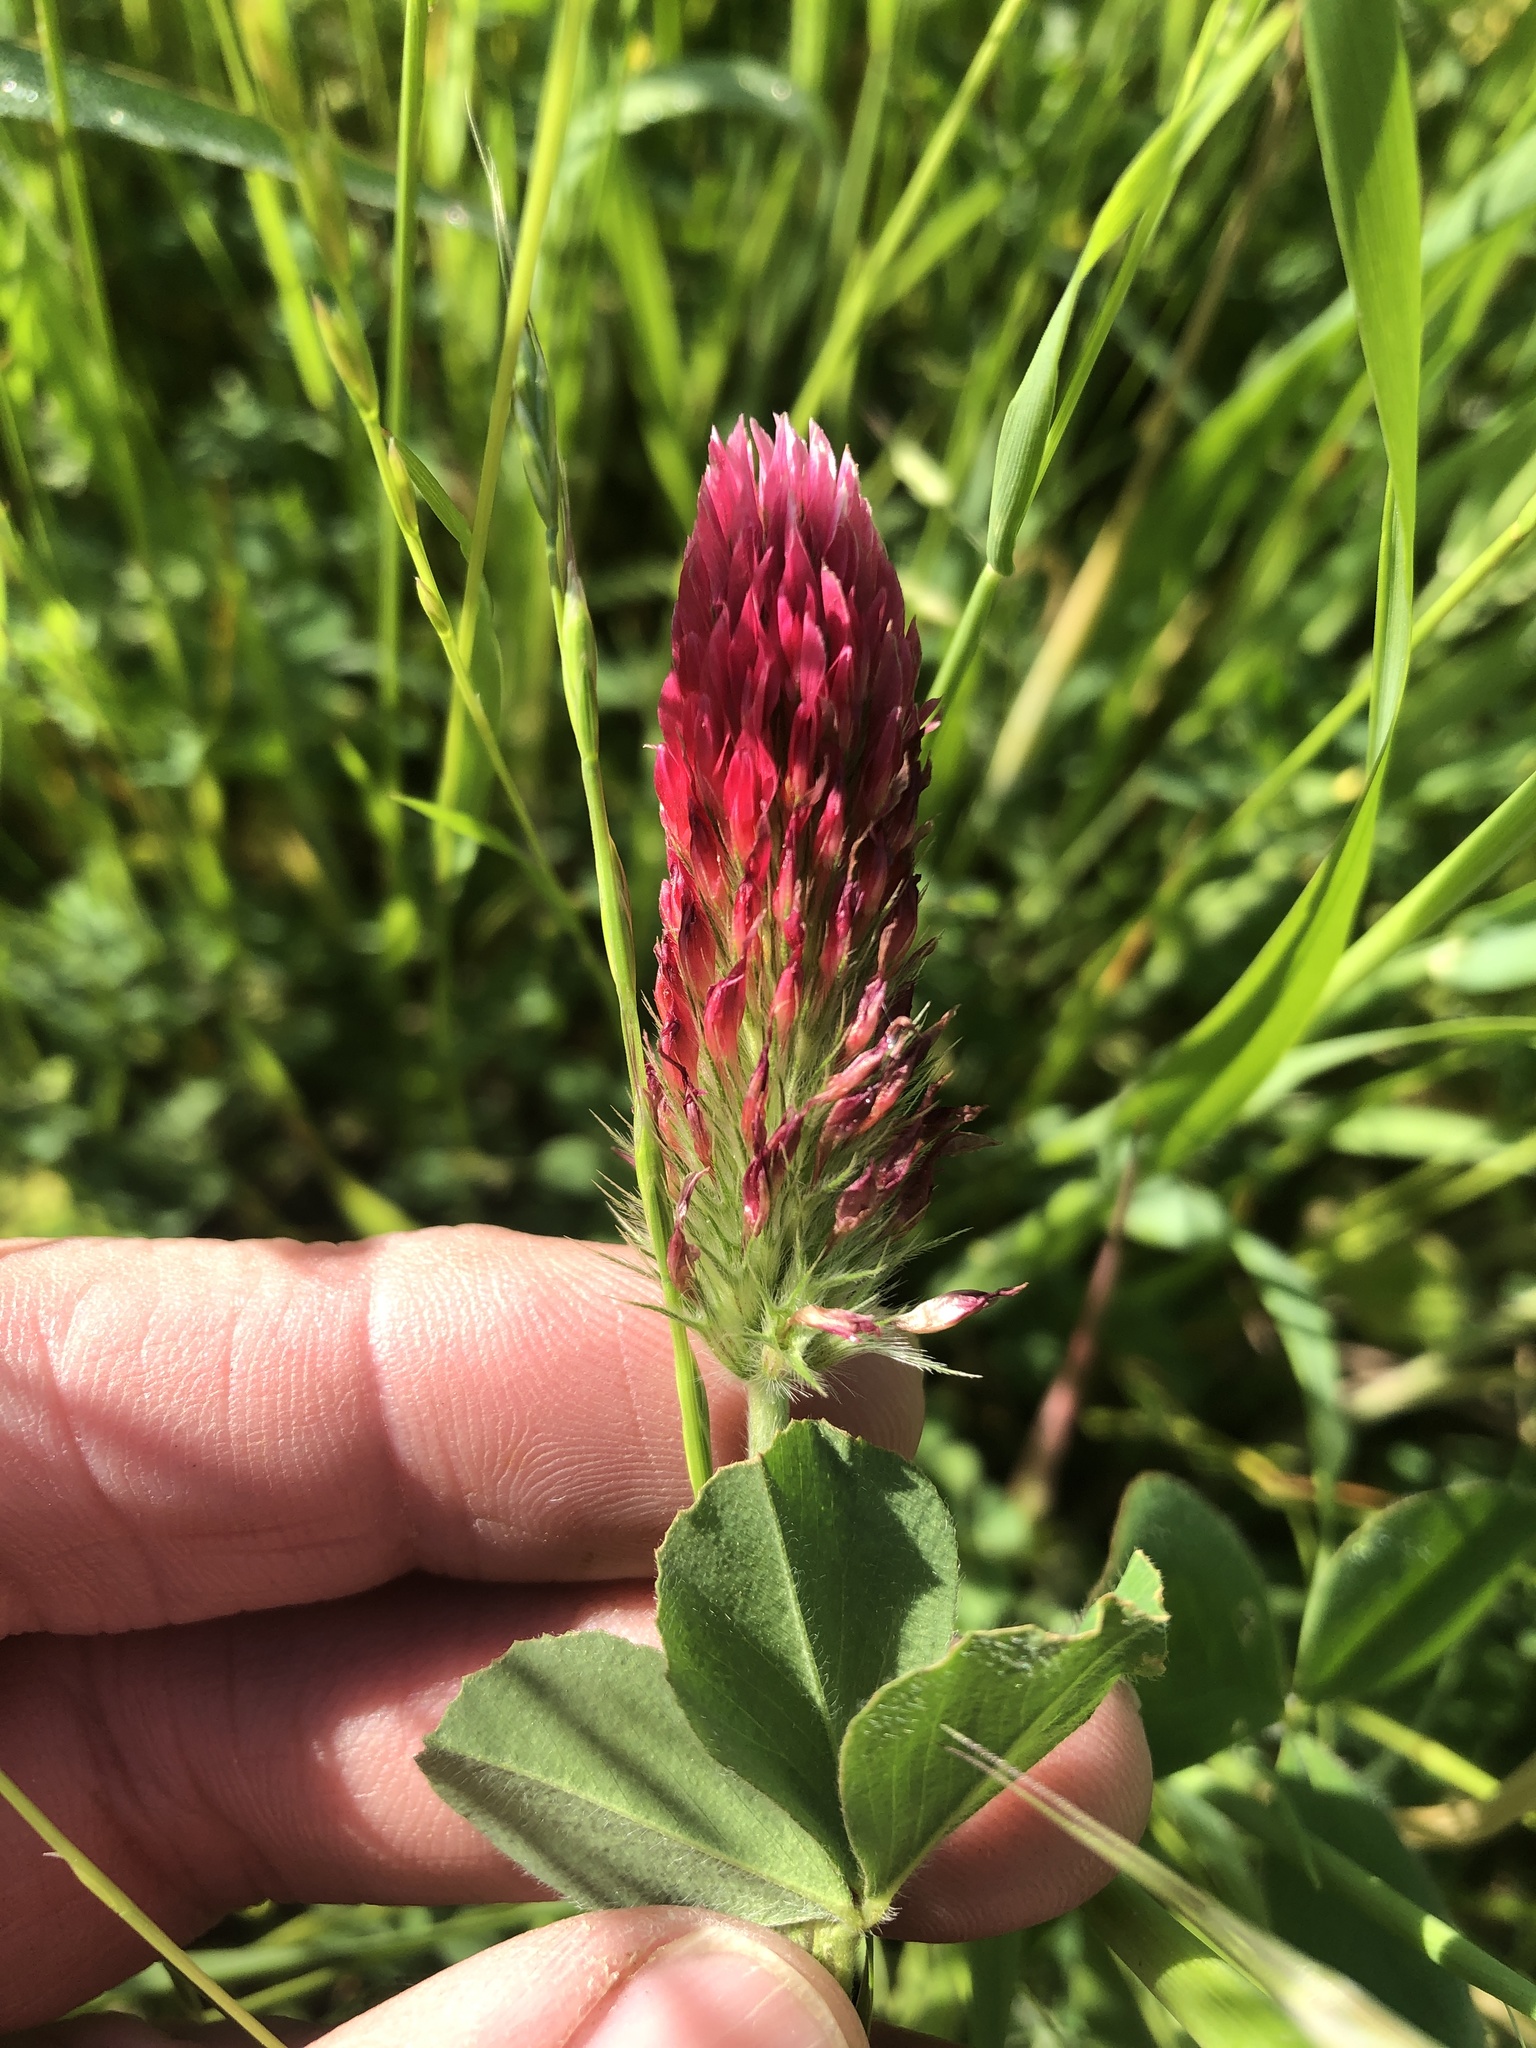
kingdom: Plantae
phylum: Tracheophyta
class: Magnoliopsida
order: Fabales
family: Fabaceae
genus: Trifolium
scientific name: Trifolium incarnatum
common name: Crimson clover
